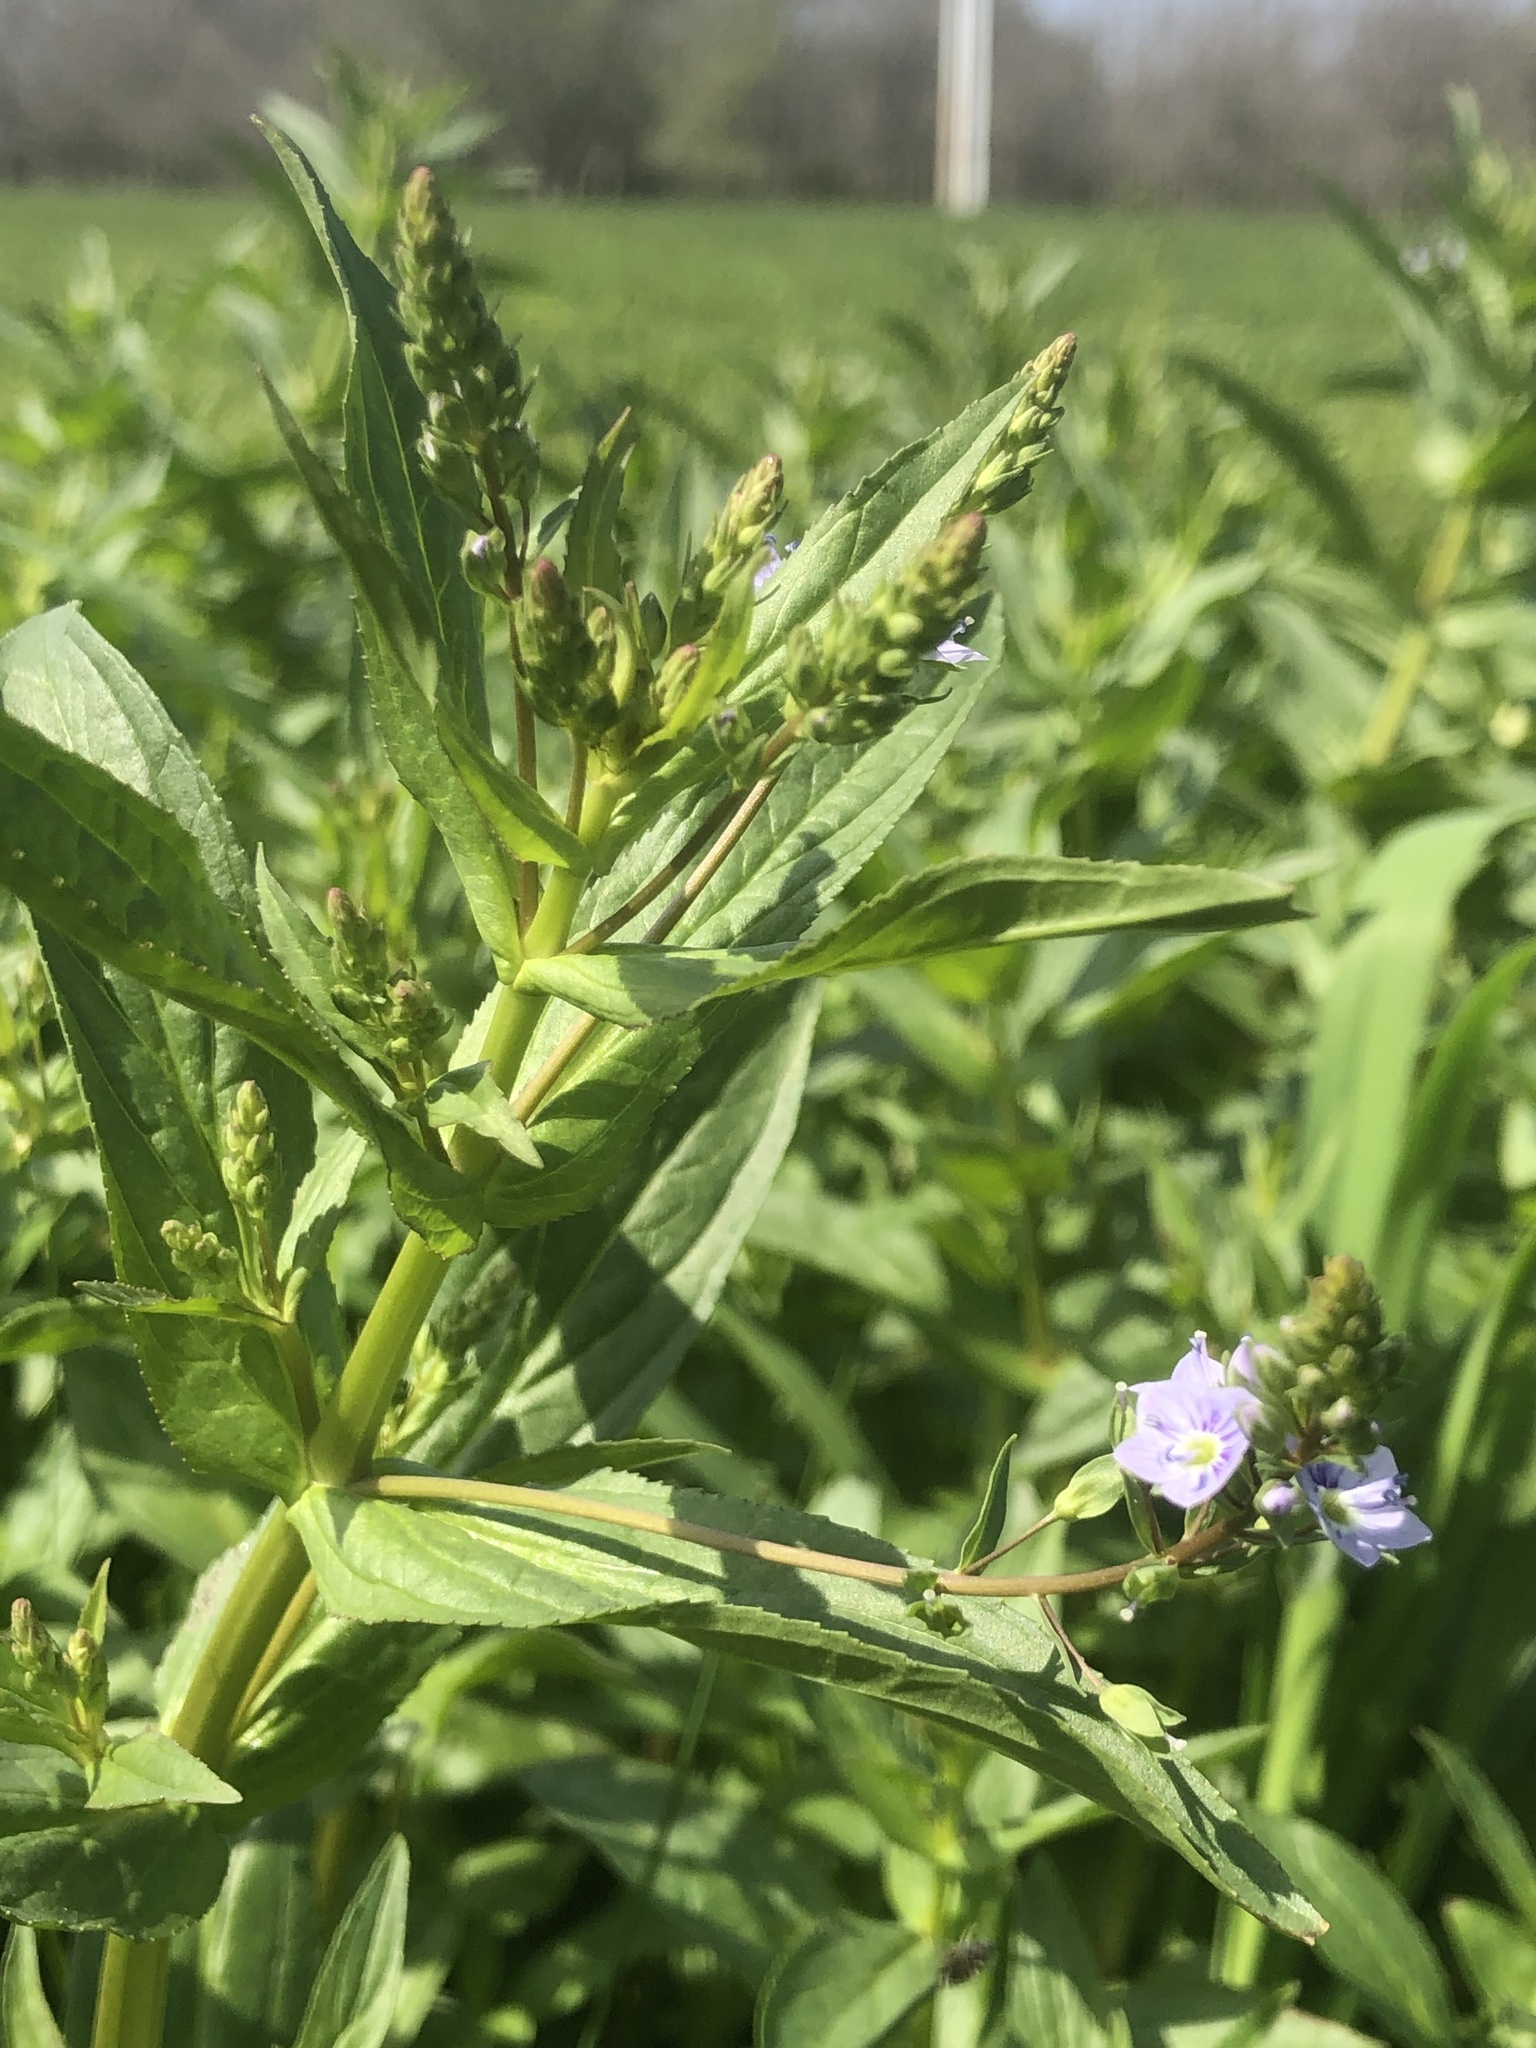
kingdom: Plantae
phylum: Tracheophyta
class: Magnoliopsida
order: Lamiales
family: Plantaginaceae
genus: Veronica
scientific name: Veronica anagallis-aquatica
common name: Water speedwell
